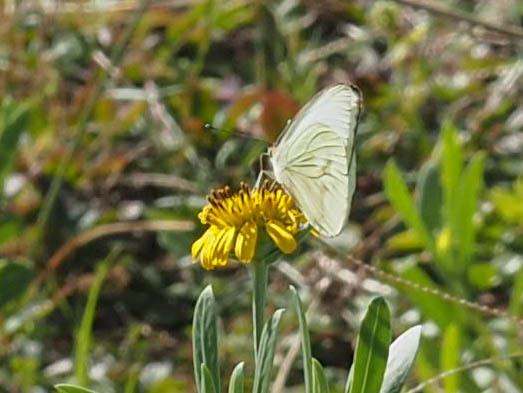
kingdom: Animalia
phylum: Arthropoda
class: Insecta
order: Lepidoptera
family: Pieridae
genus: Ascia
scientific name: Ascia monuste
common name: Great southern white
